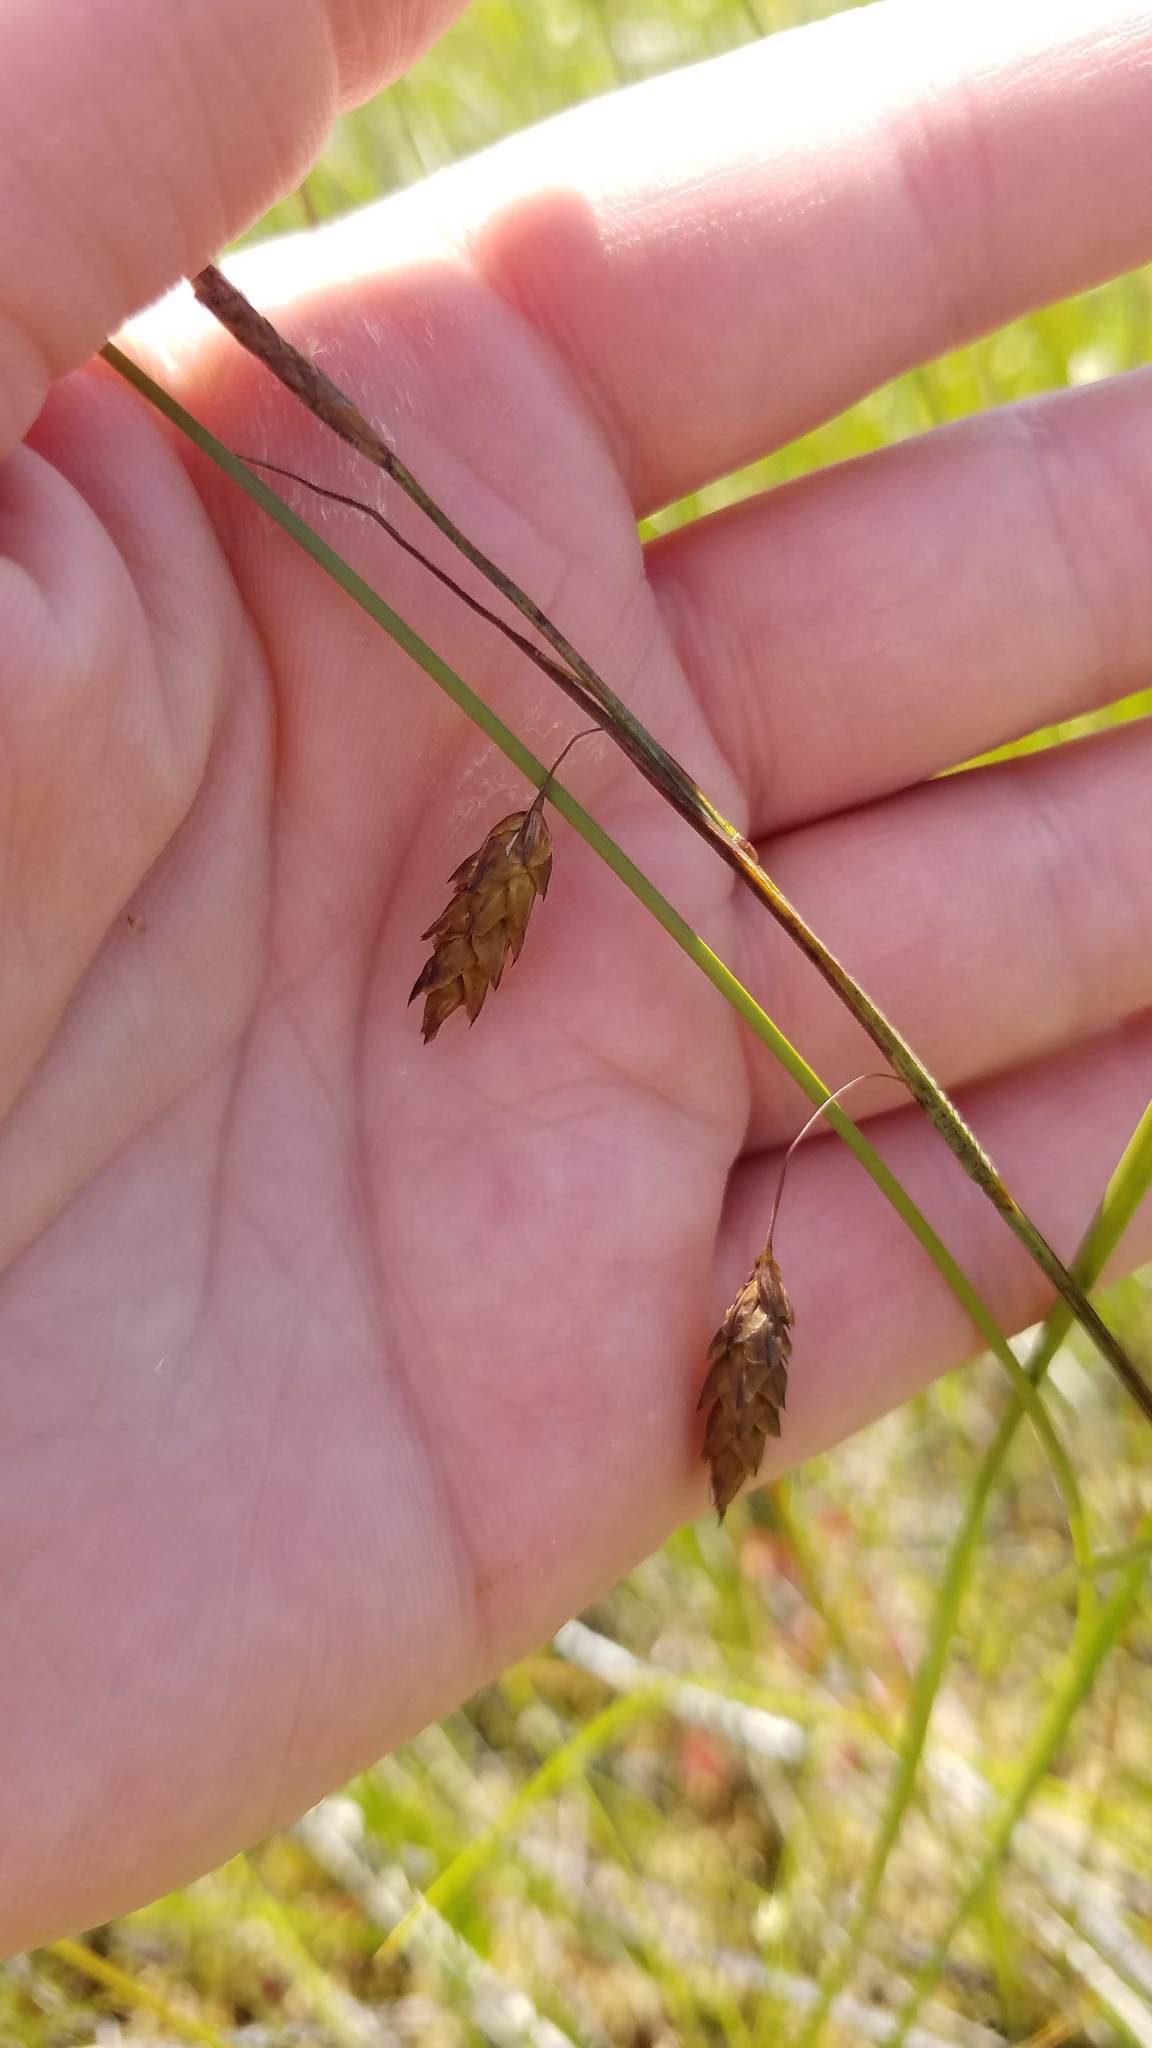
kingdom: Plantae
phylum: Tracheophyta
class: Liliopsida
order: Poales
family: Cyperaceae
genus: Carex
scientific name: Carex limosa
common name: Bog sedge
